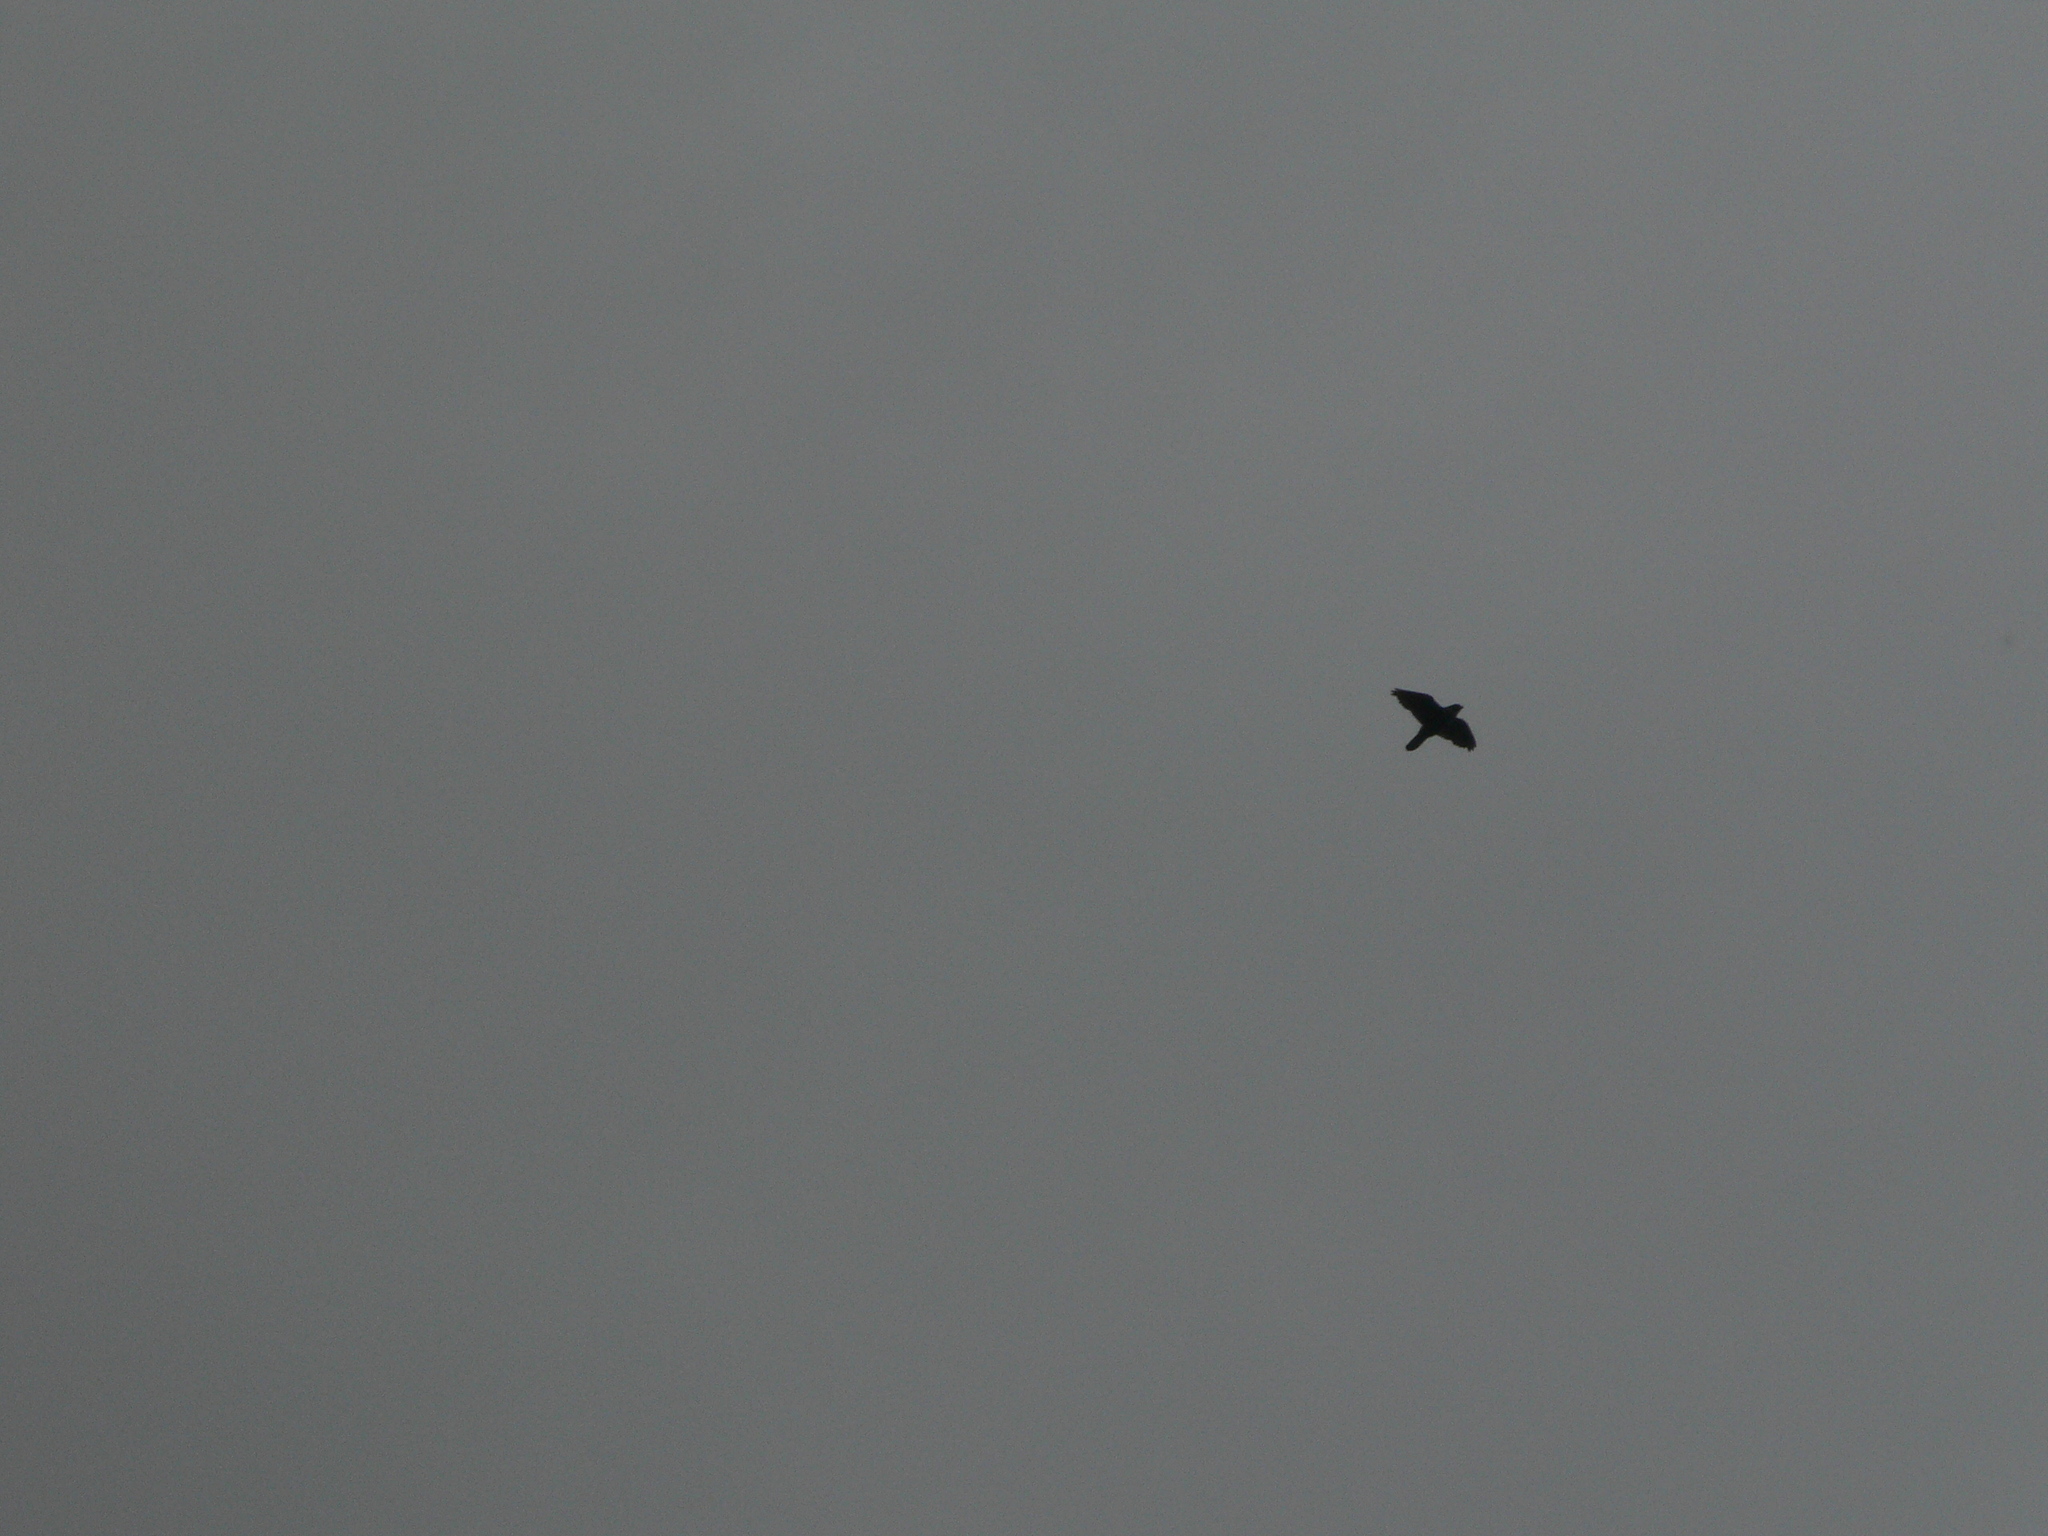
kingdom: Animalia
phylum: Chordata
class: Aves
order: Falconiformes
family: Falconidae
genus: Falco
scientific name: Falco peregrinus
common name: Peregrine falcon
